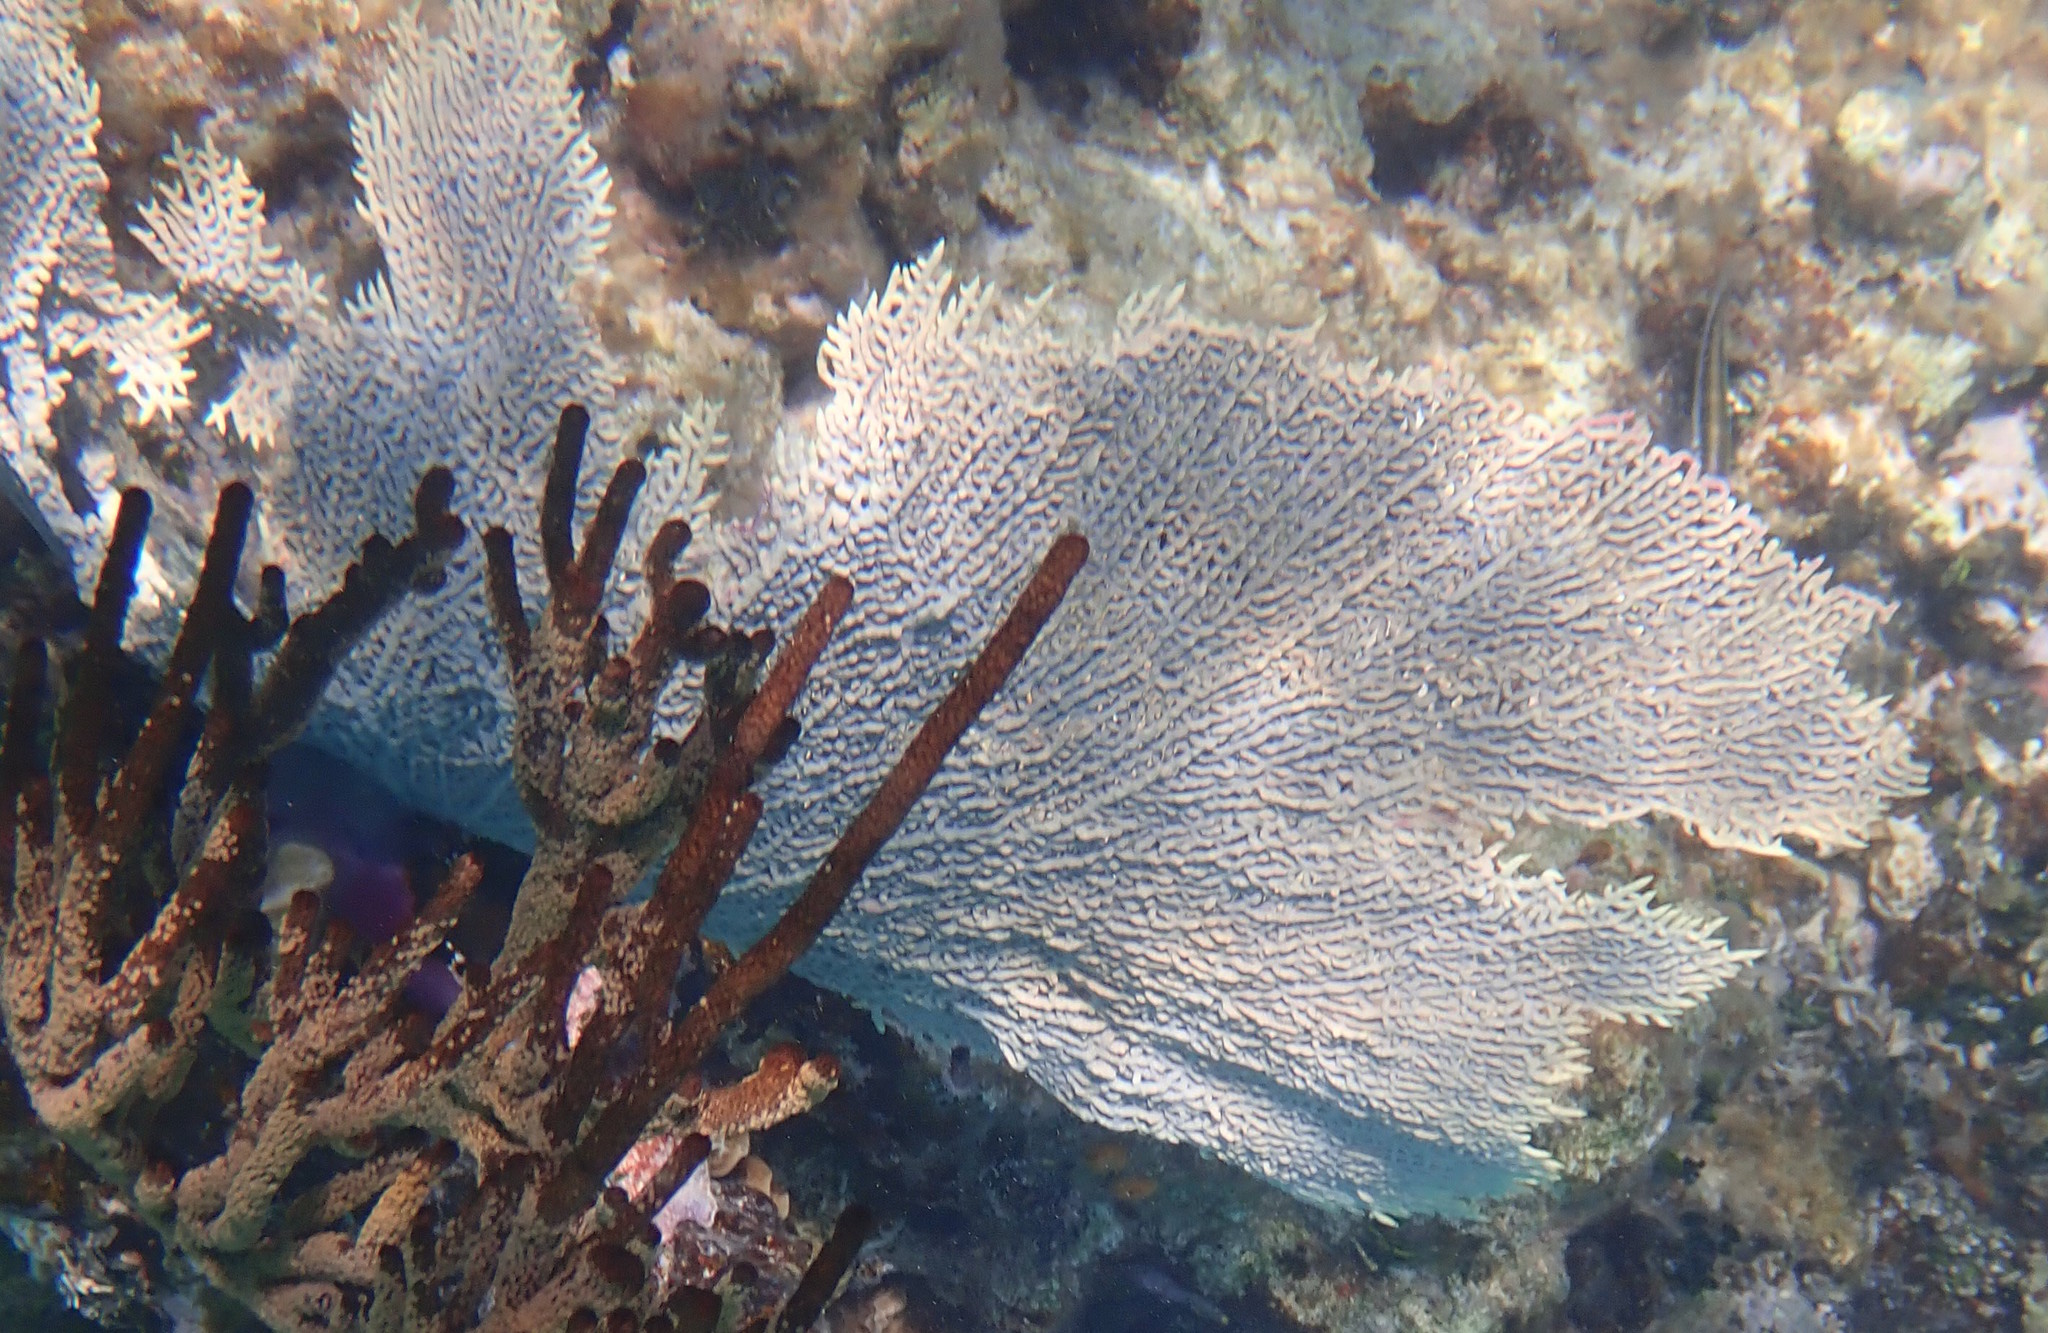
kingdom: Animalia
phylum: Cnidaria
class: Anthozoa
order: Malacalcyonacea
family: Gorgoniidae
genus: Gorgonia
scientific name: Gorgonia ventalina
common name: Common sea fan
